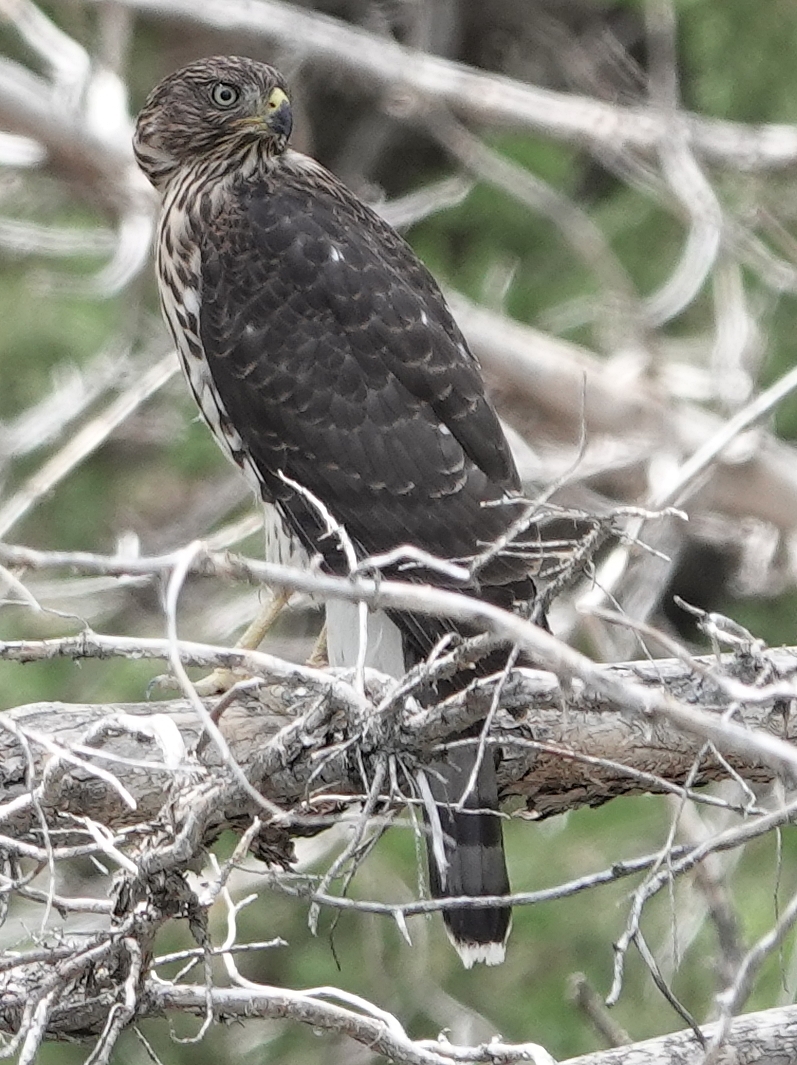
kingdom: Animalia
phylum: Chordata
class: Aves
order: Accipitriformes
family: Accipitridae
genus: Accipiter
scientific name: Accipiter cooperii
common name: Cooper's hawk
